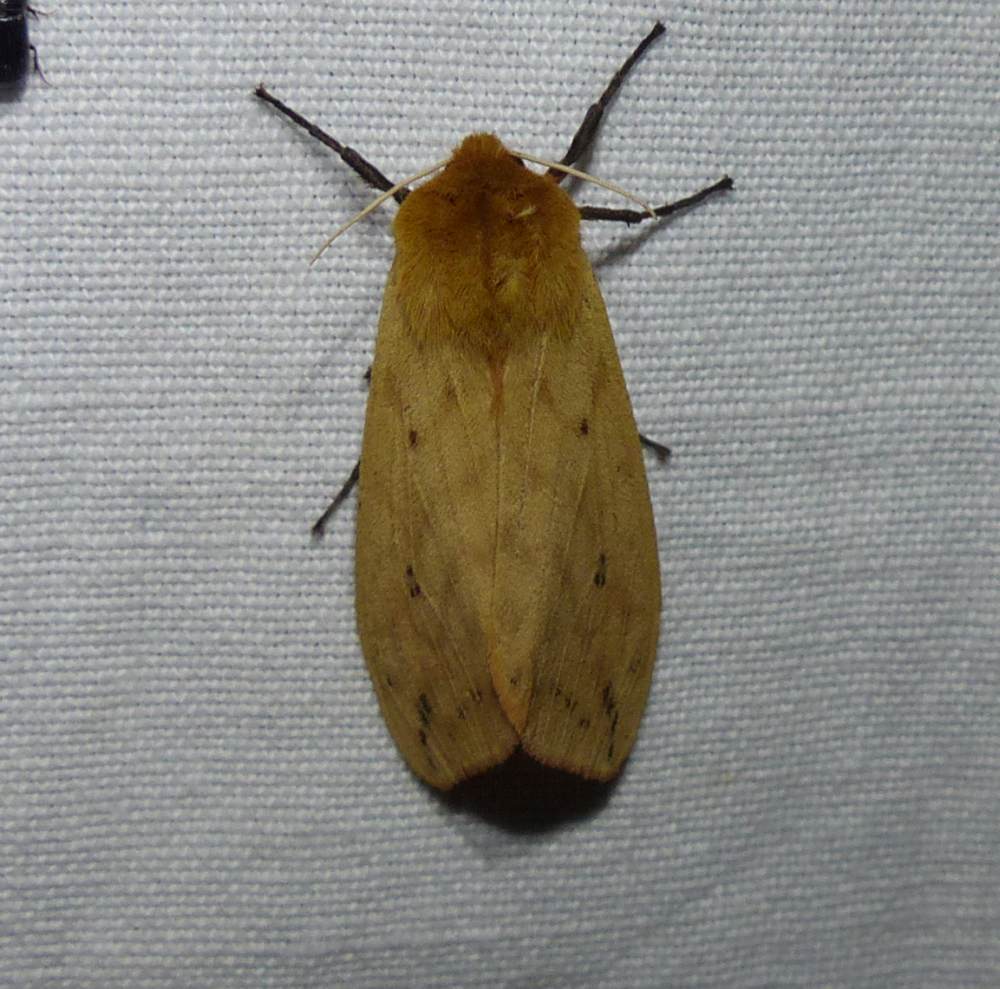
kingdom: Animalia
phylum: Arthropoda
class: Insecta
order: Lepidoptera
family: Erebidae
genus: Pyrrharctia
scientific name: Pyrrharctia isabella
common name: Isabella tiger moth
